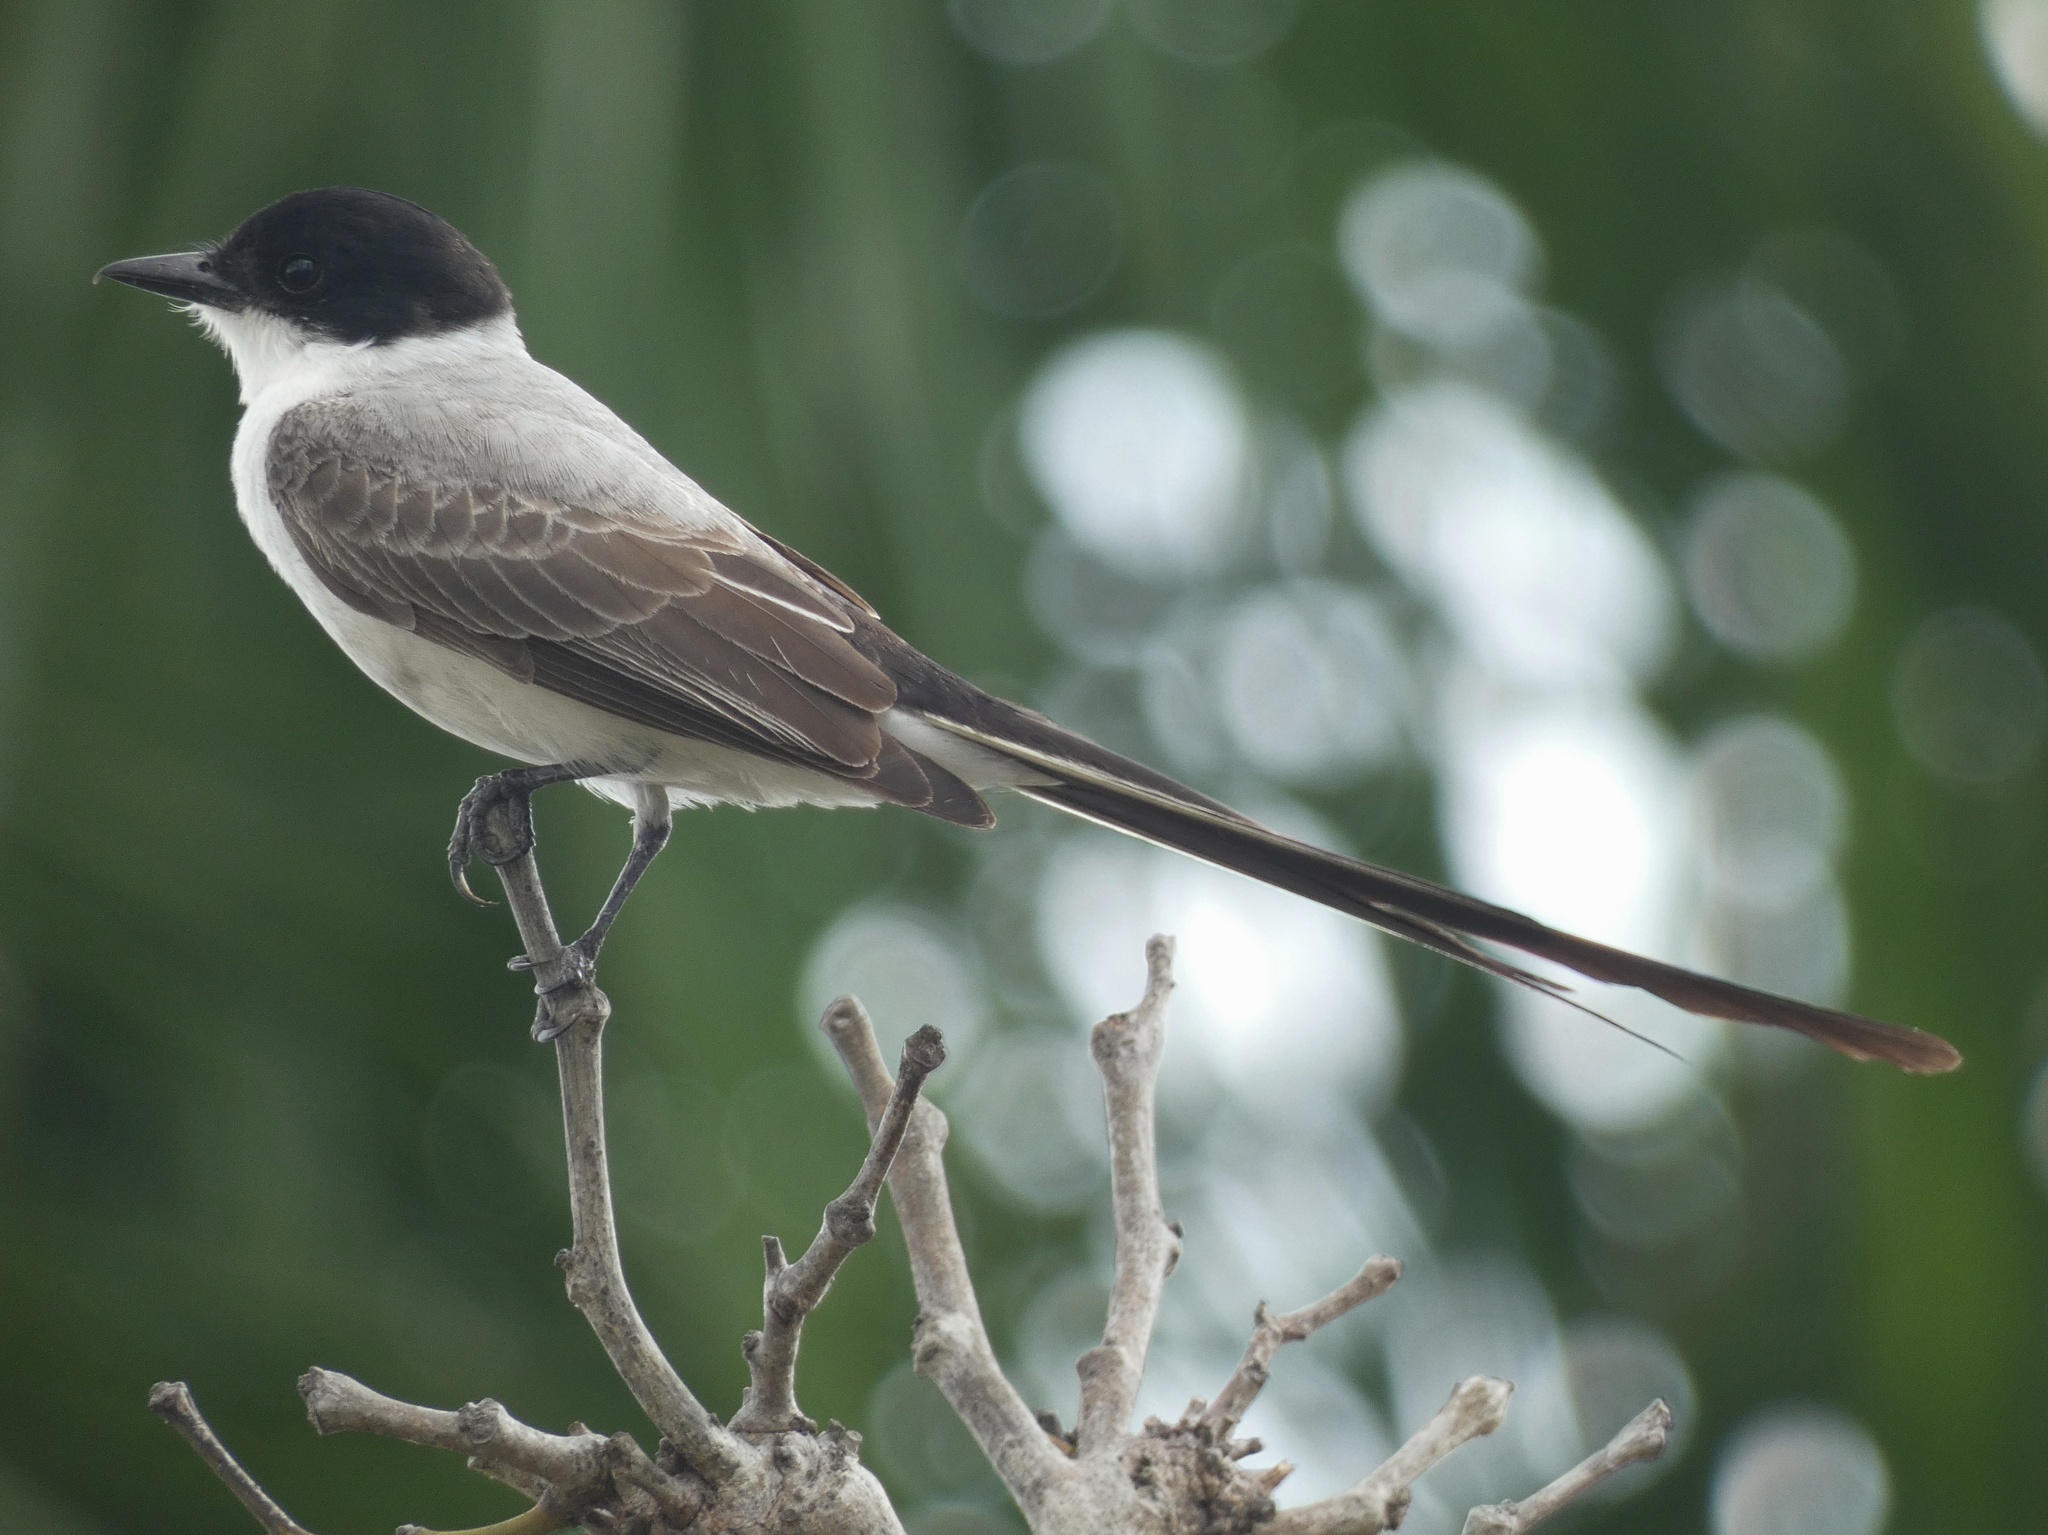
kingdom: Animalia
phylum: Chordata
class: Aves
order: Passeriformes
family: Tyrannidae
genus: Tyrannus
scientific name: Tyrannus savana
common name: Fork-tailed flycatcher
